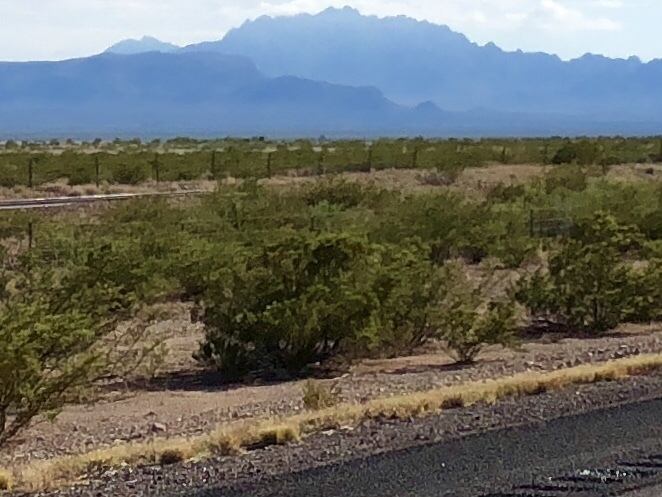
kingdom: Plantae
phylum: Tracheophyta
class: Magnoliopsida
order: Zygophyllales
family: Zygophyllaceae
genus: Larrea
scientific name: Larrea tridentata
